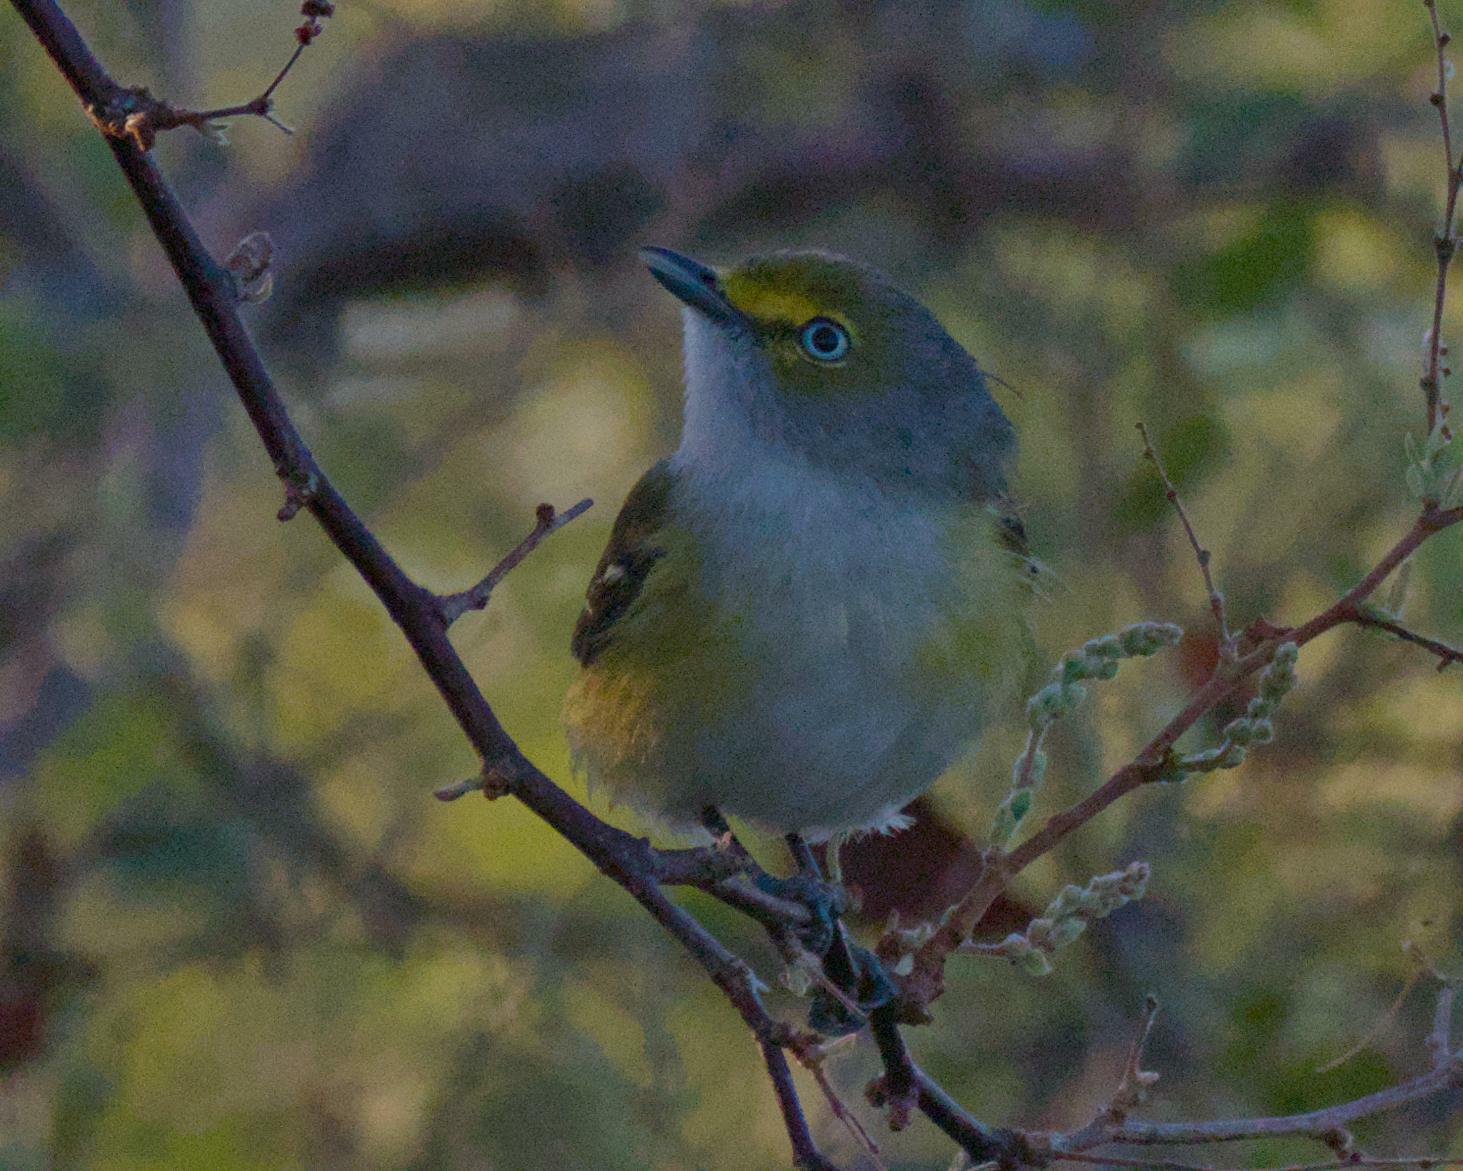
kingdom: Animalia
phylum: Chordata
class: Aves
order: Passeriformes
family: Vireonidae
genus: Vireo
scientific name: Vireo griseus
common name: White-eyed vireo
